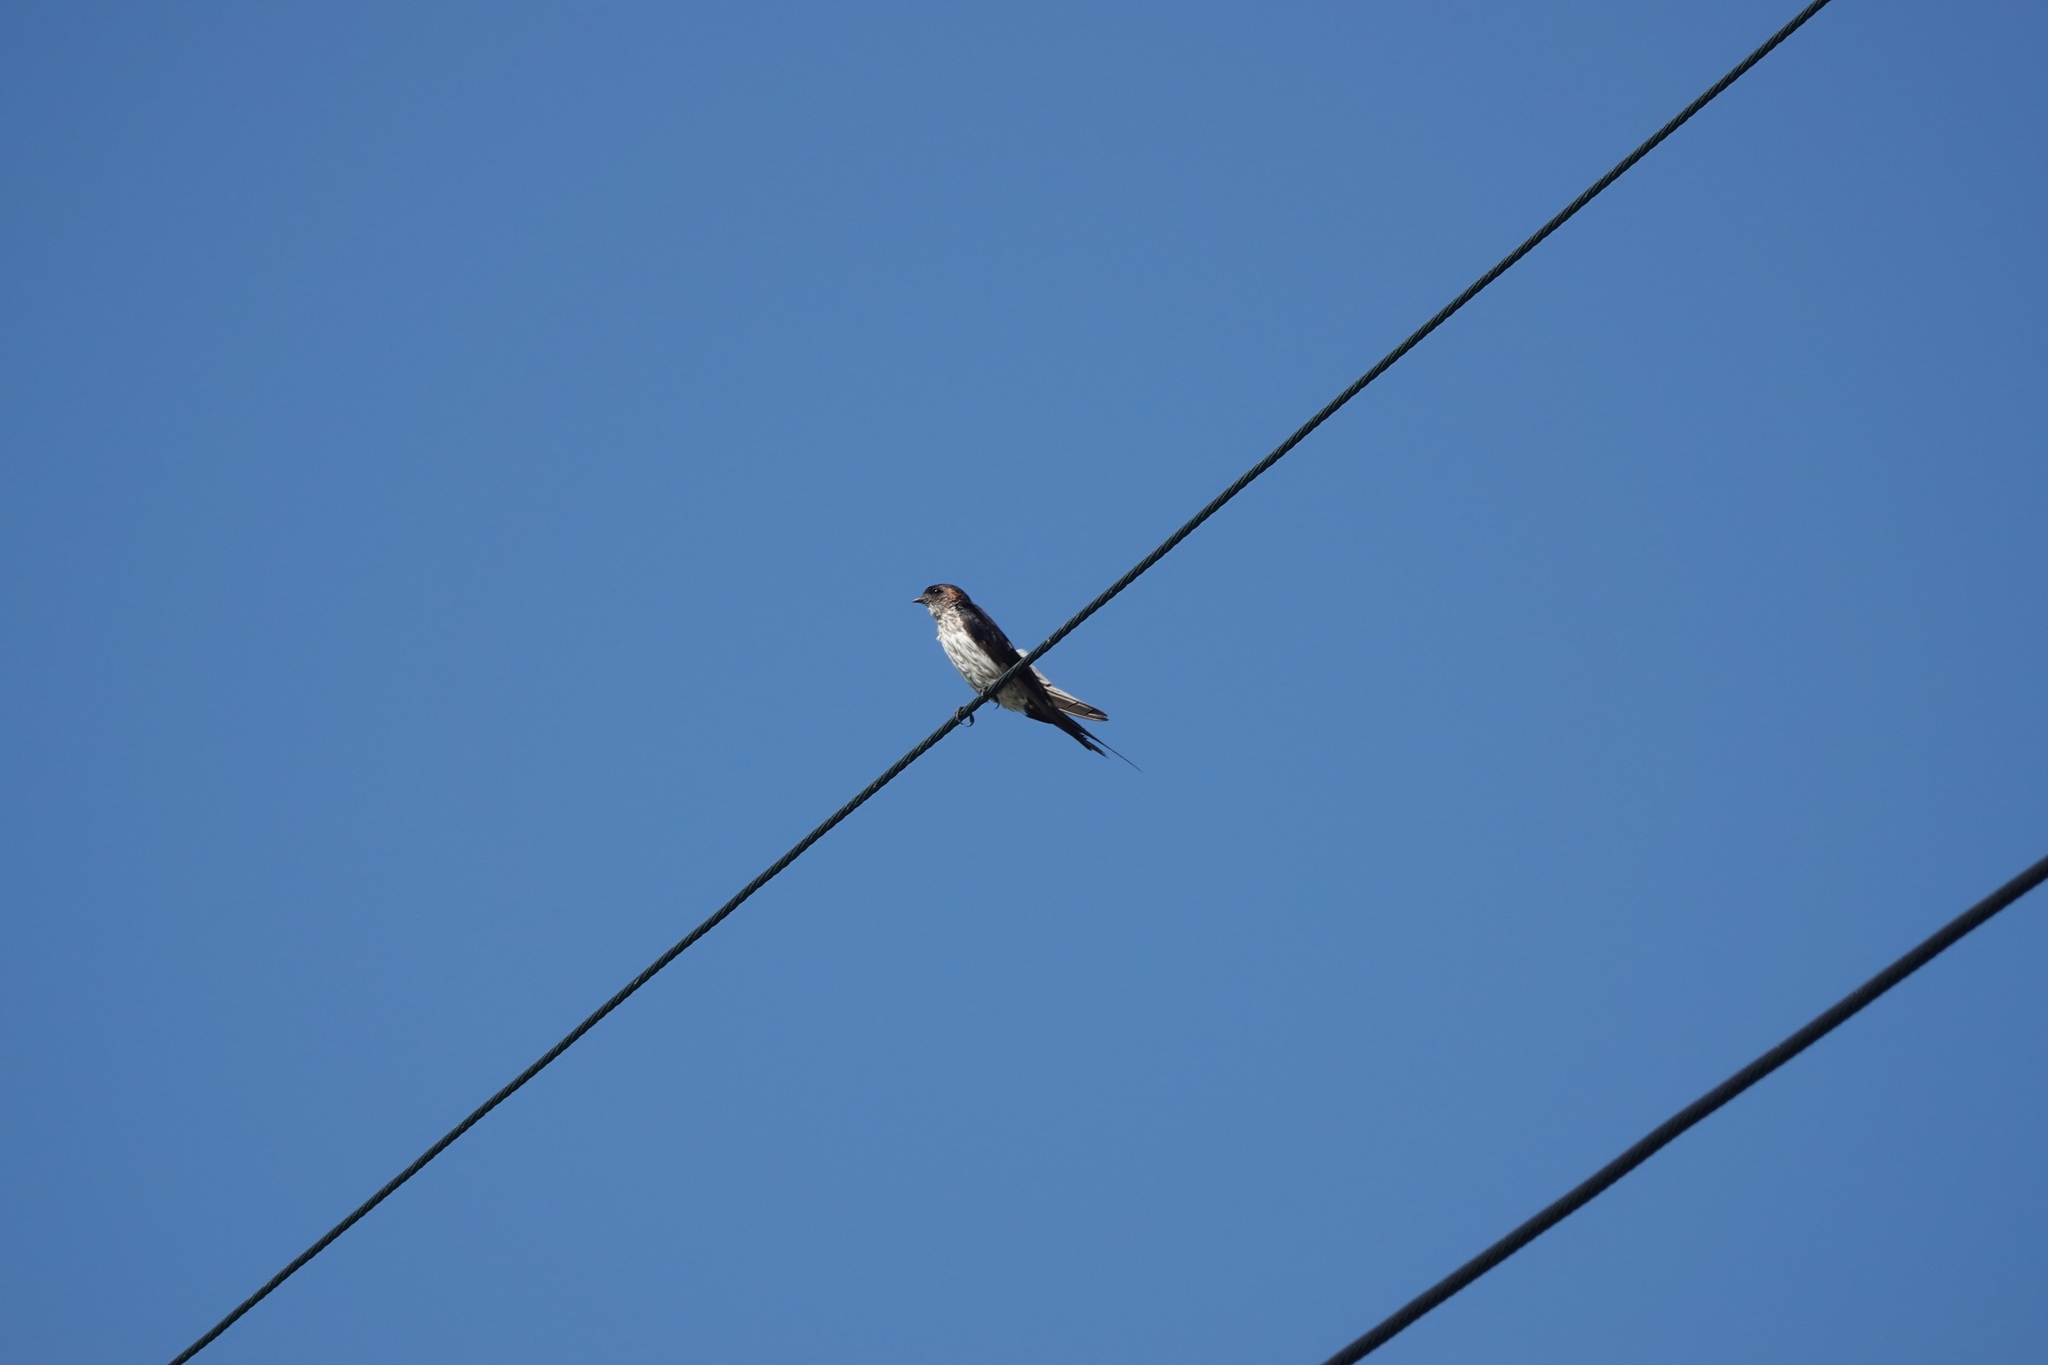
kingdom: Animalia
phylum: Chordata
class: Aves
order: Passeriformes
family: Hirundinidae
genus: Cecropis
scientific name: Cecropis striolata
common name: Striated swallow
